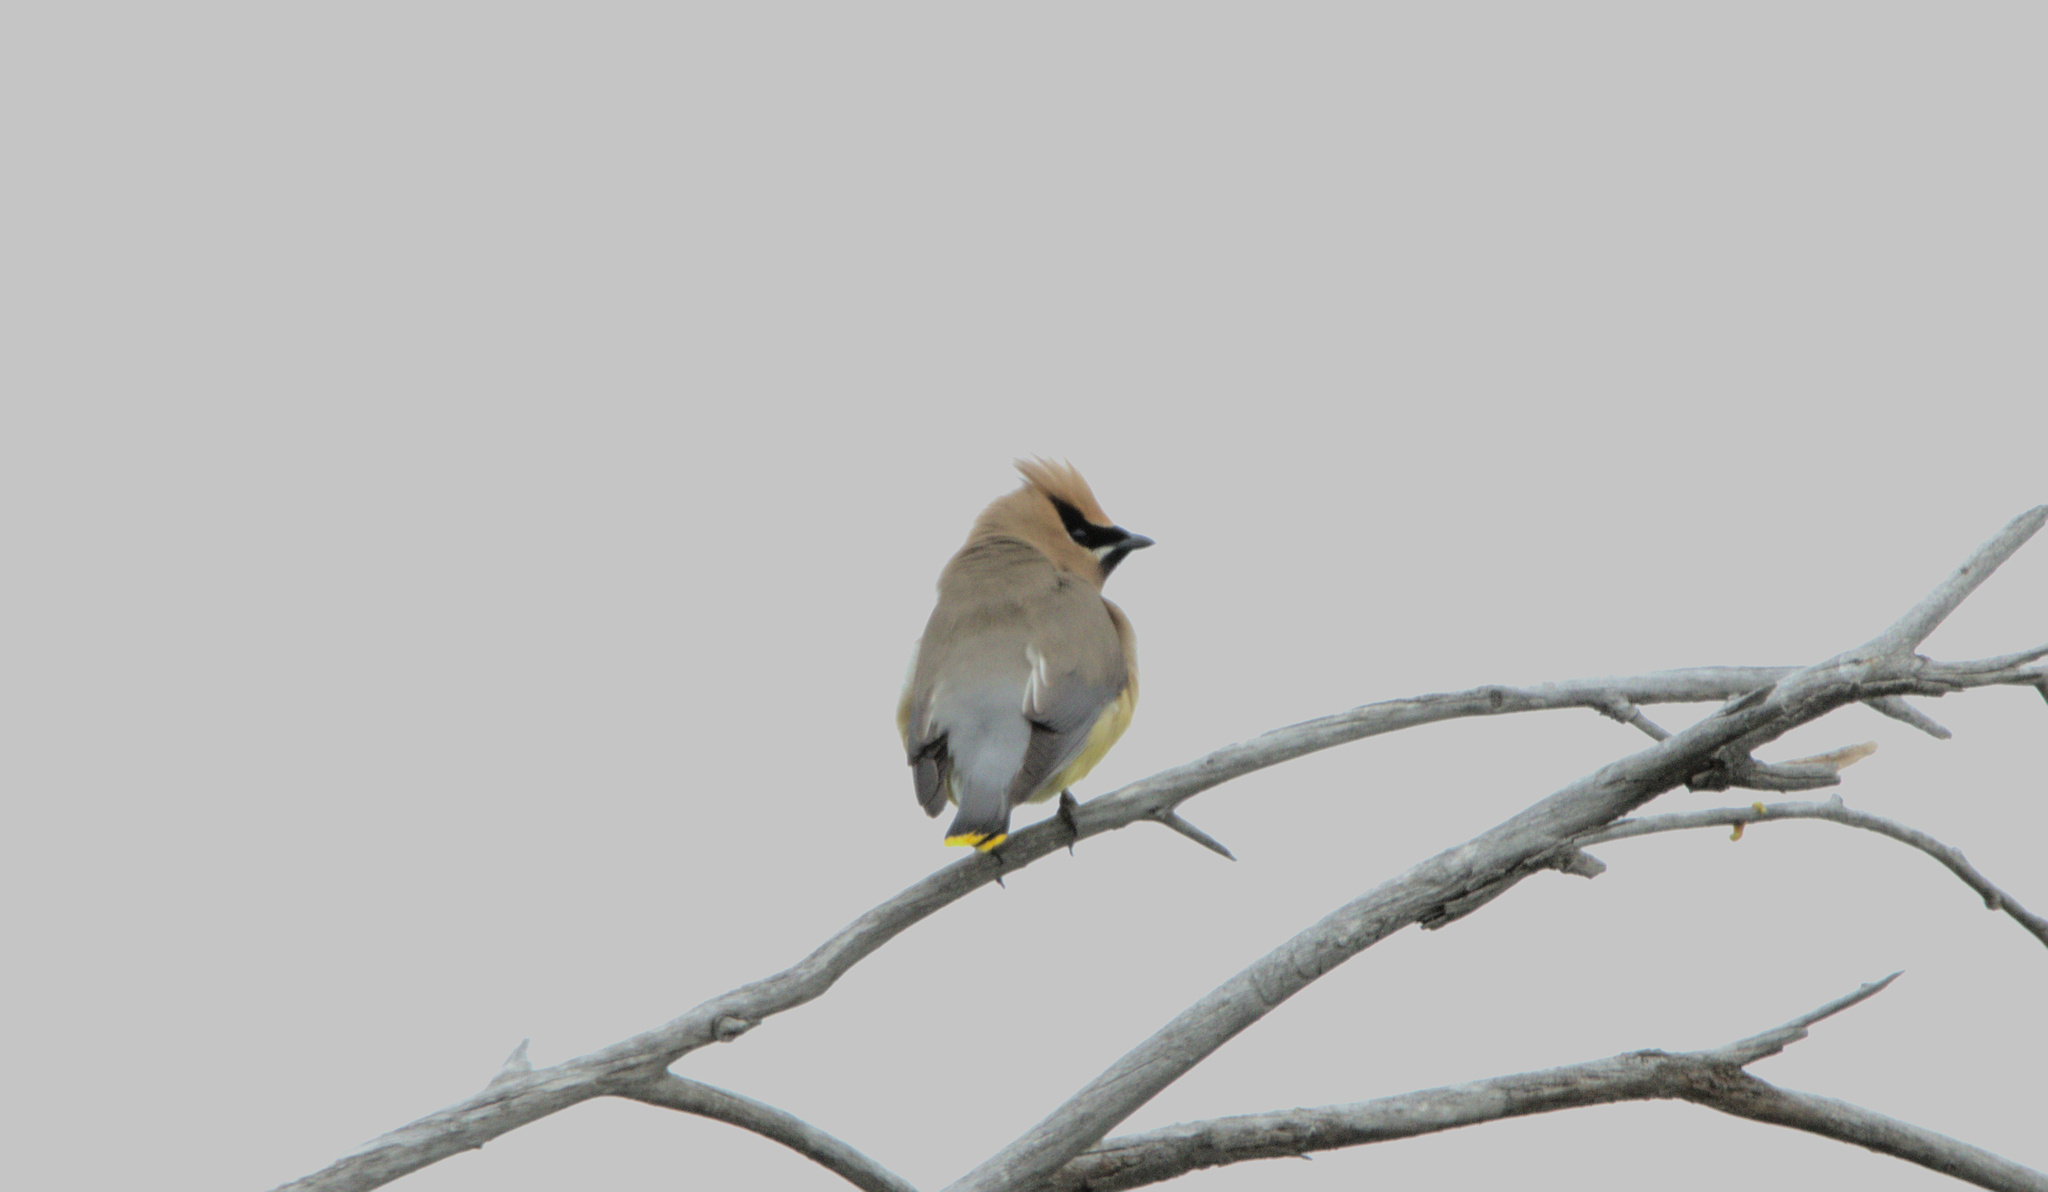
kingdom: Animalia
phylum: Chordata
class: Aves
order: Passeriformes
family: Bombycillidae
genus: Bombycilla
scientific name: Bombycilla cedrorum
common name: Cedar waxwing
